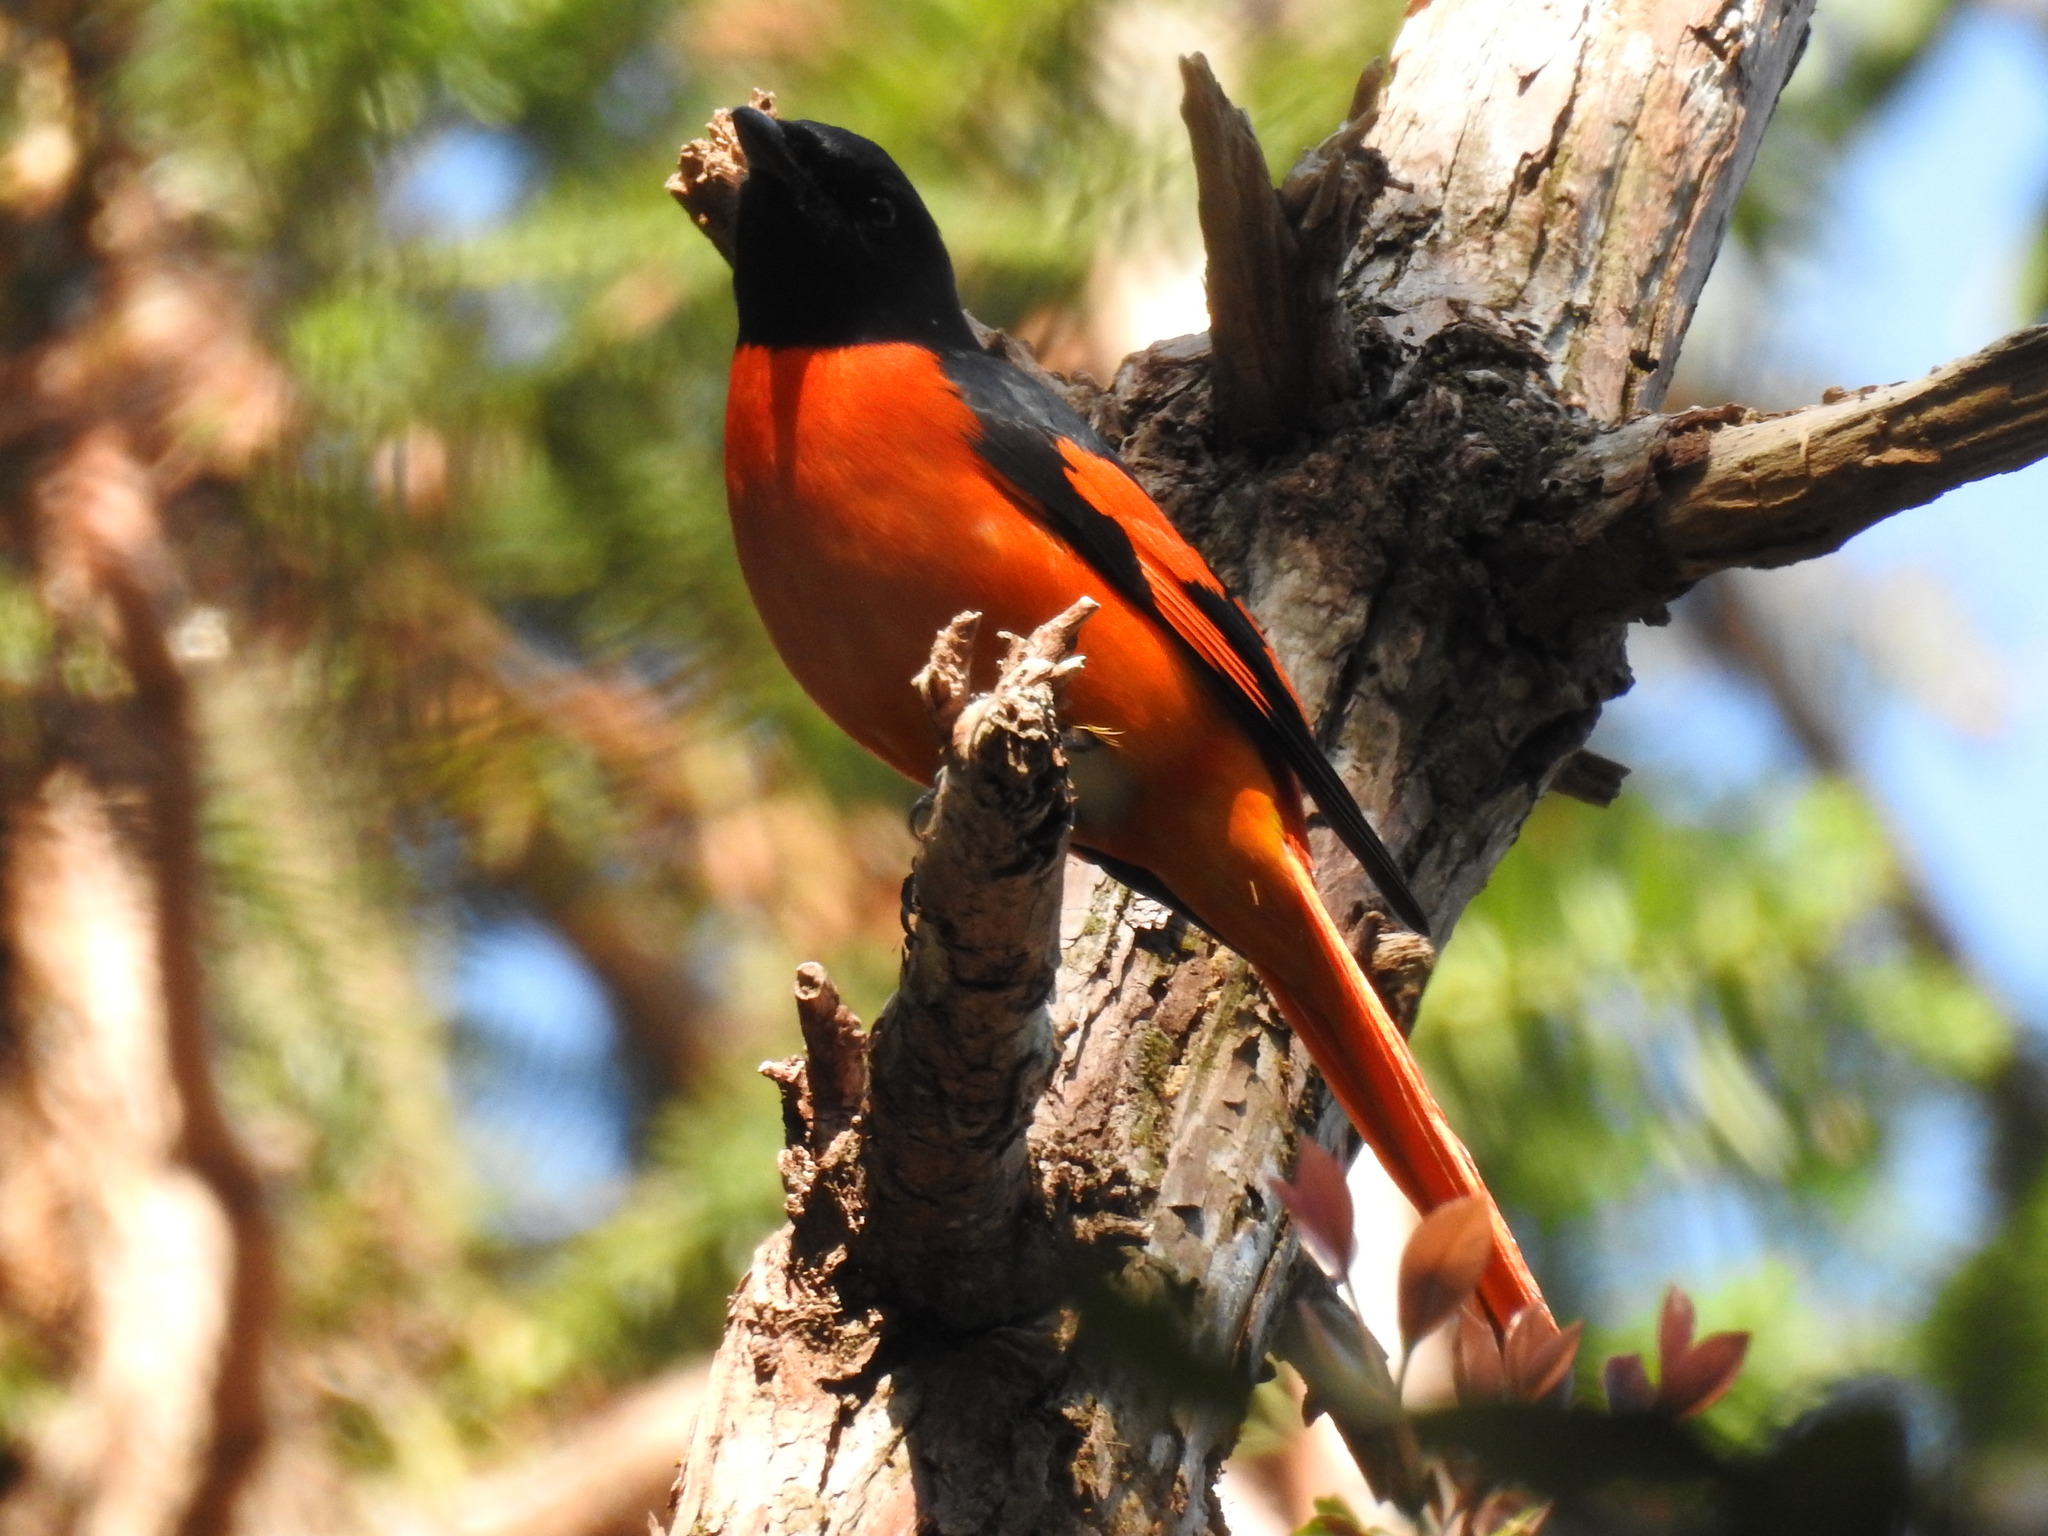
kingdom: Animalia
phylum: Chordata
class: Aves
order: Passeriformes
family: Campephagidae
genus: Pericrocotus
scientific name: Pericrocotus speciosus
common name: Scarlet minivet
